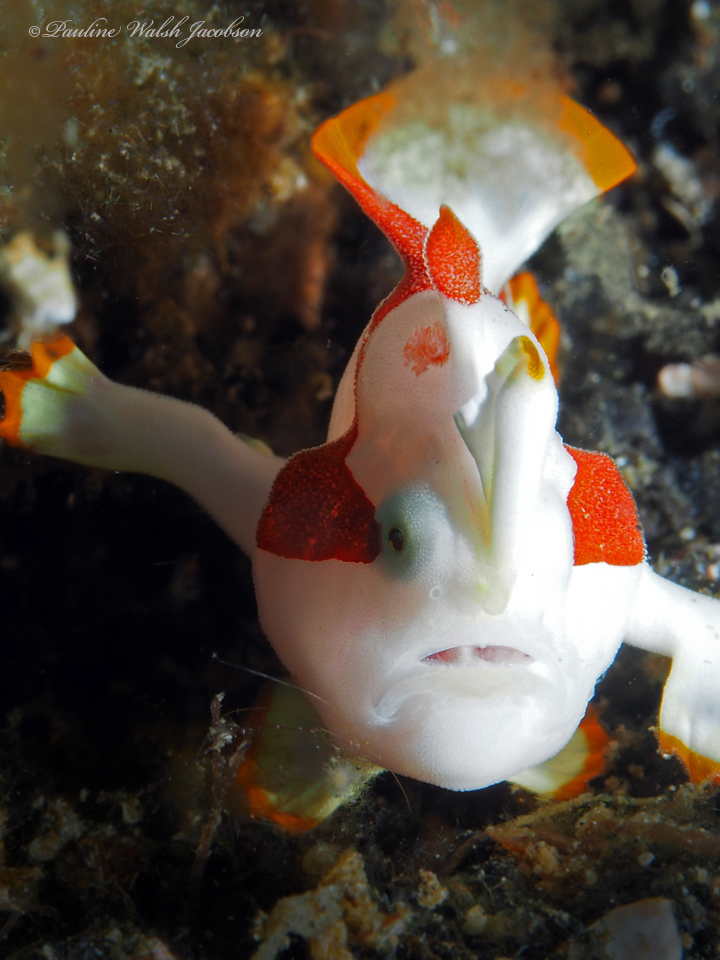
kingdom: Animalia
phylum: Chordata
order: Lophiiformes
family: Antennariidae
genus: Antennarius
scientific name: Antennarius maculatus
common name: Warty frogfish
